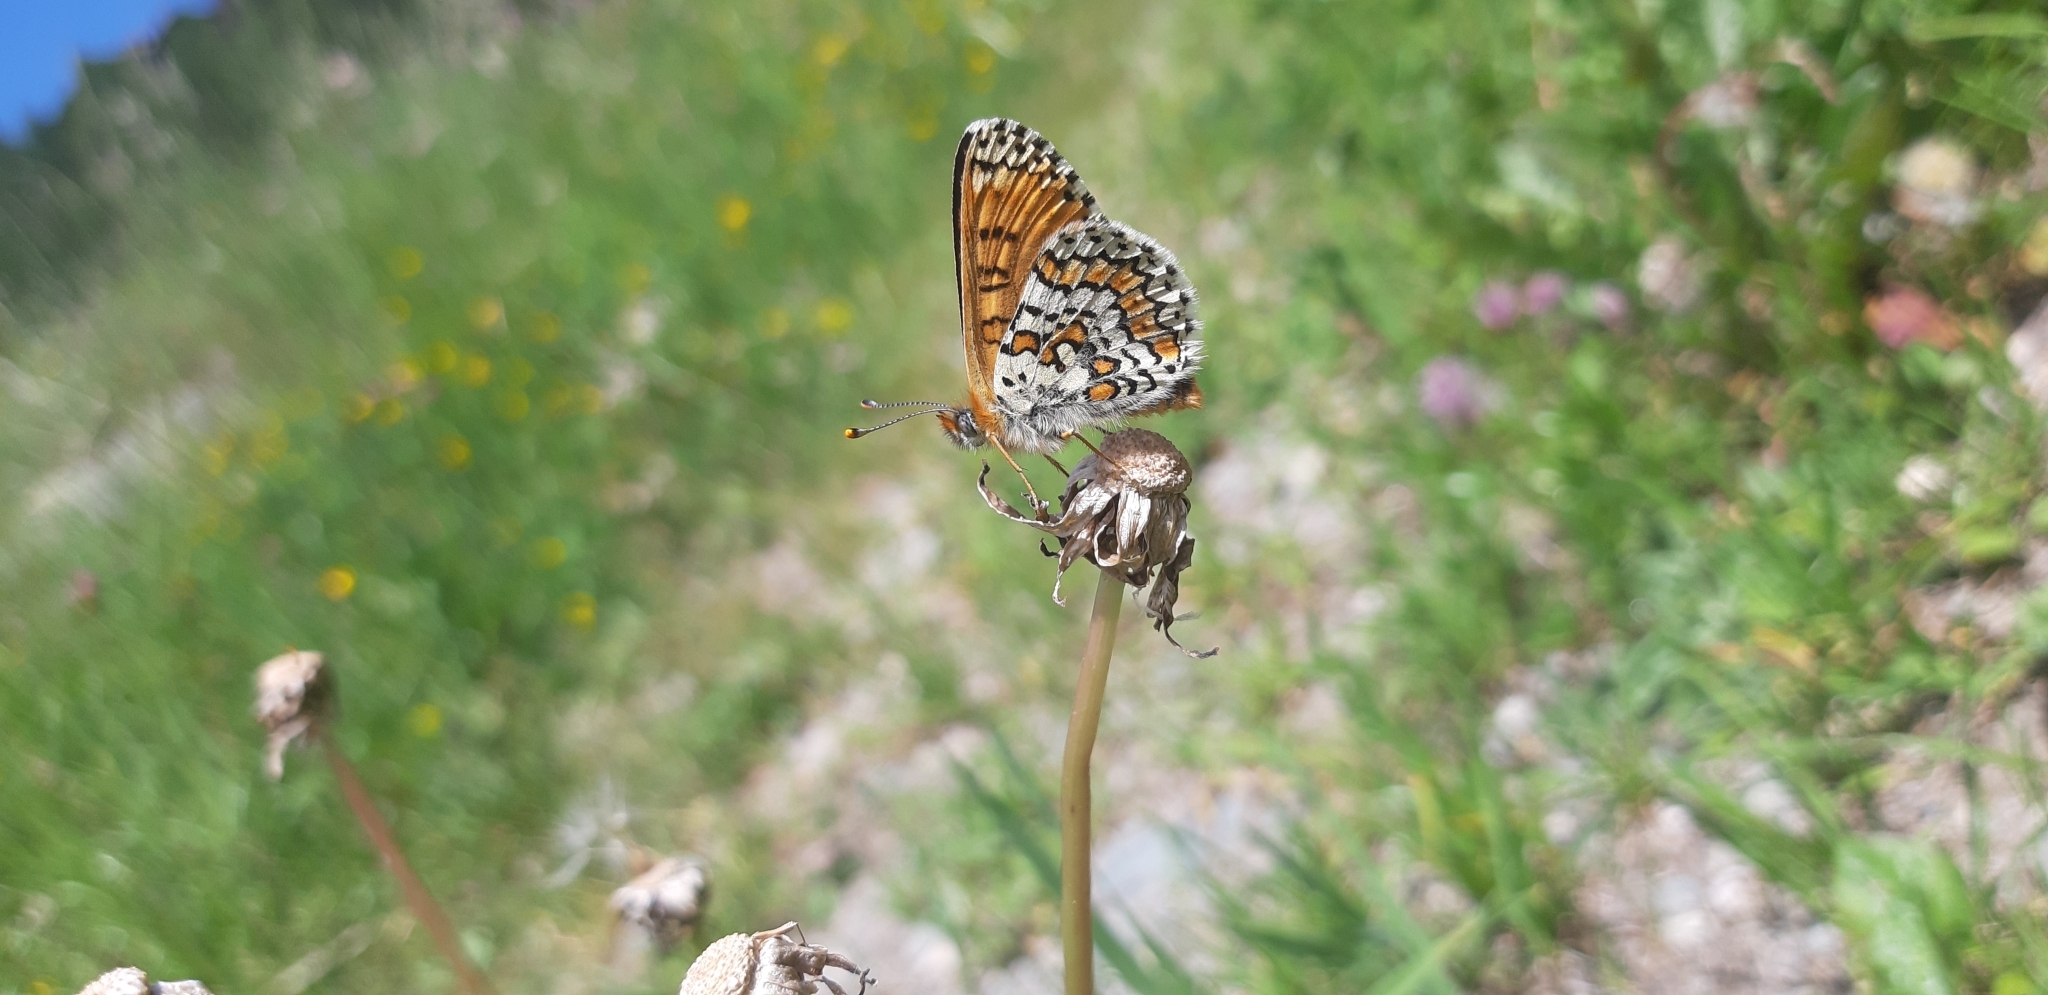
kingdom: Animalia
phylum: Arthropoda
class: Insecta
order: Lepidoptera
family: Nymphalidae
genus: Melitaea
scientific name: Melitaea cinxia
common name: Glanville fritillary
